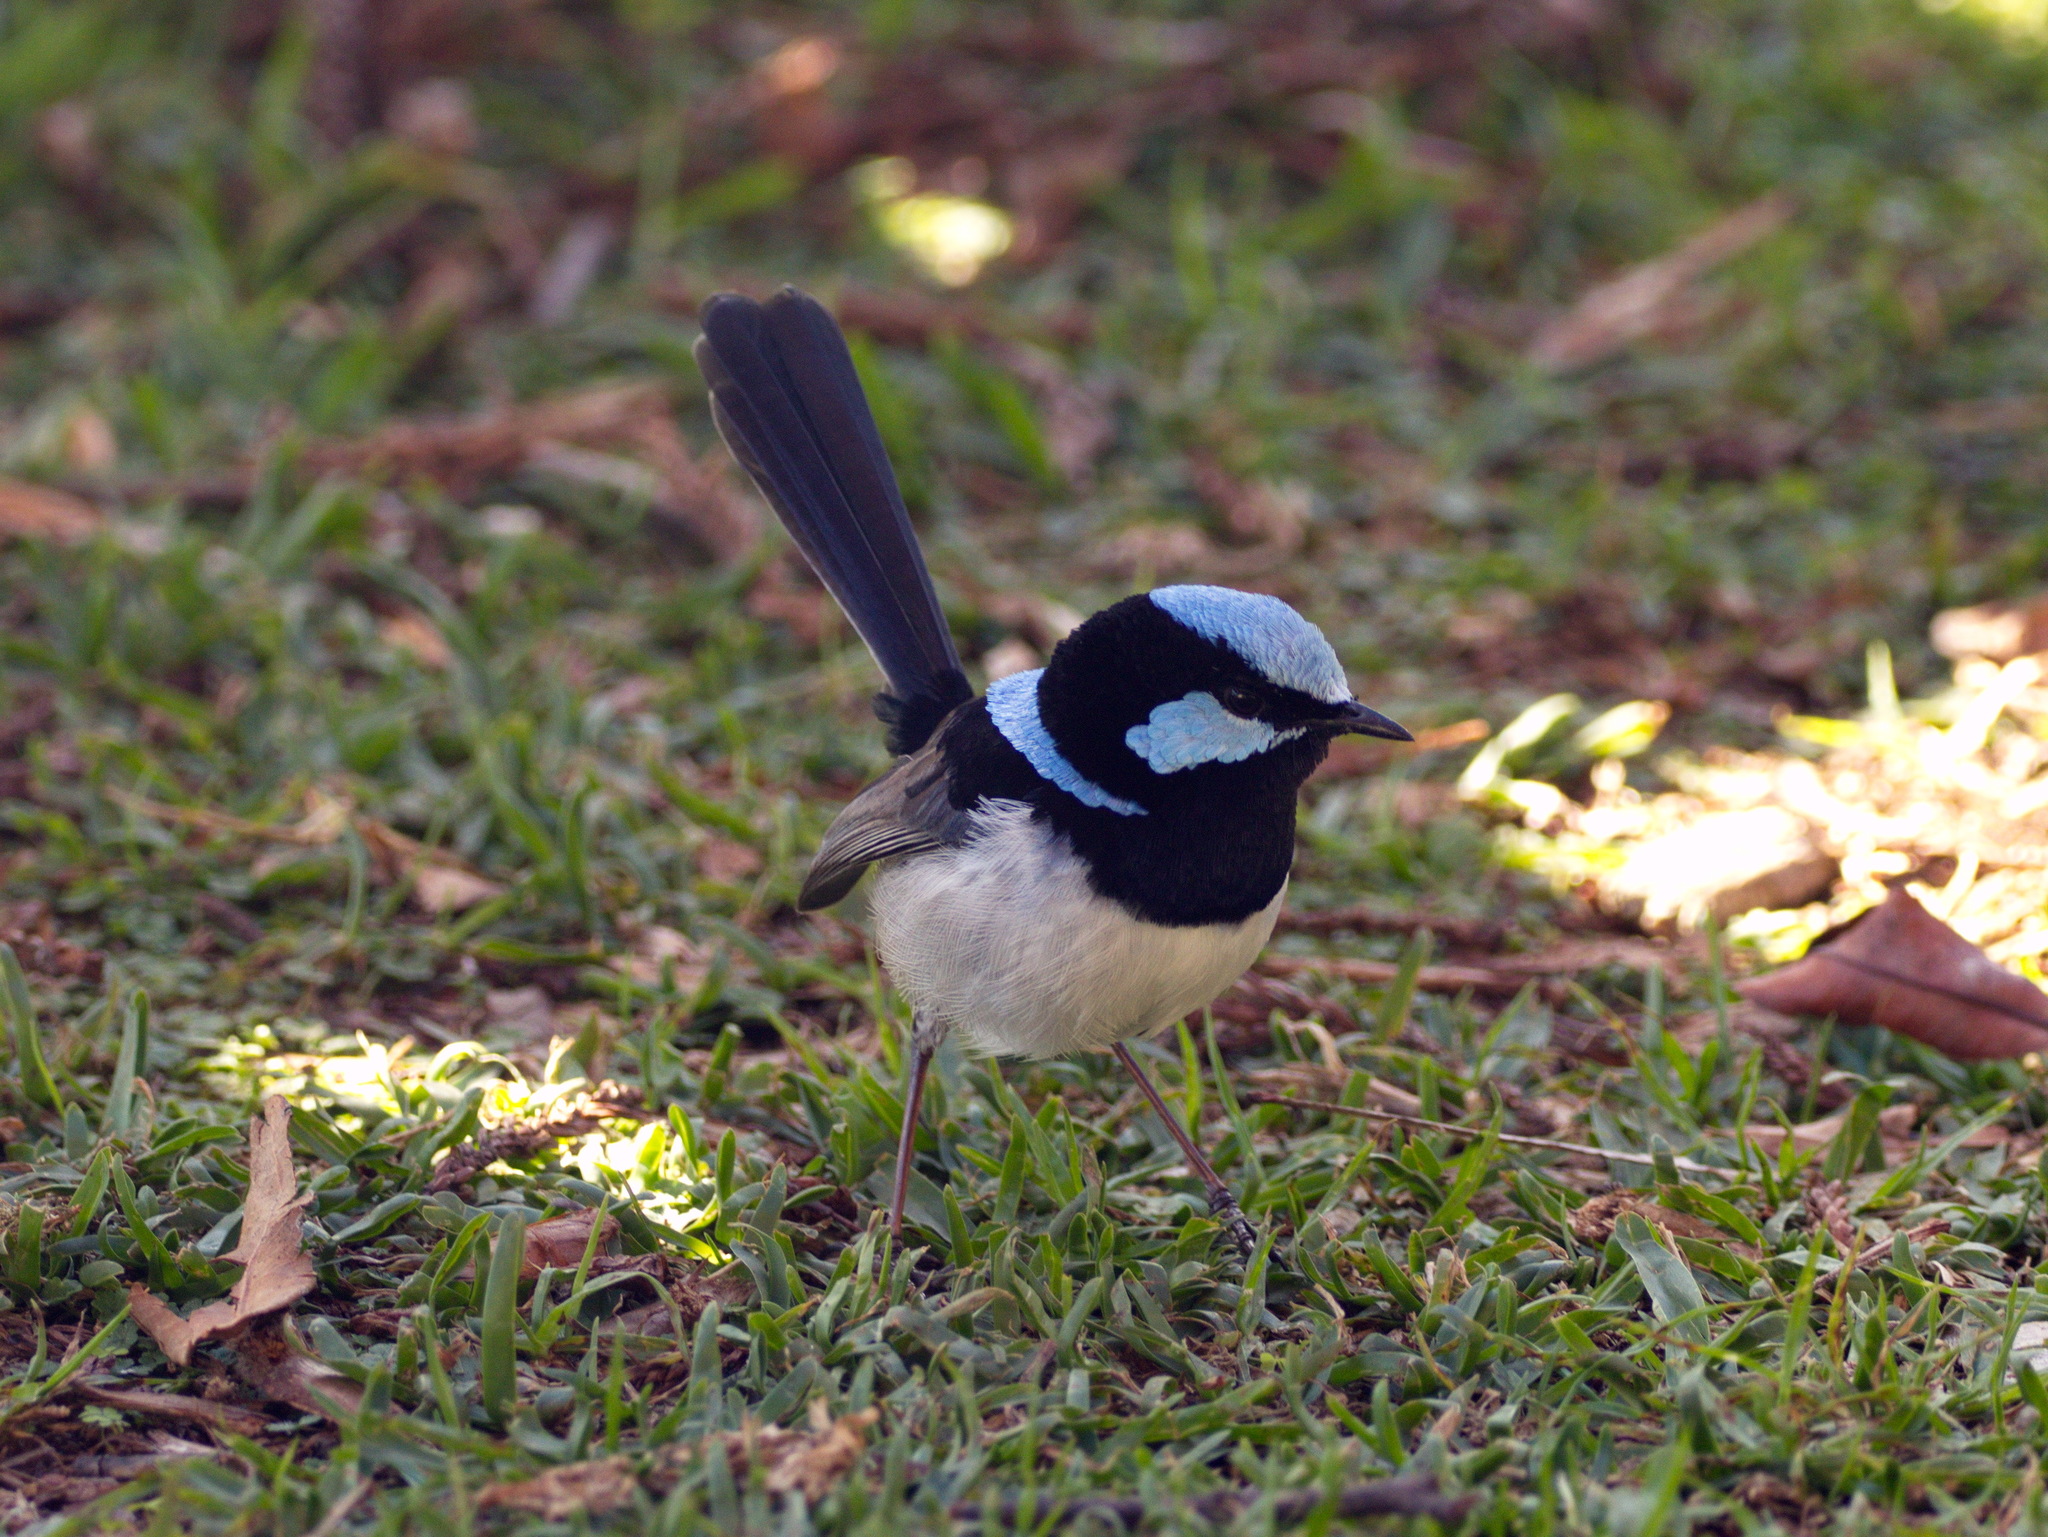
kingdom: Animalia
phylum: Chordata
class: Aves
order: Passeriformes
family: Maluridae
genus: Malurus
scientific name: Malurus cyaneus
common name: Superb fairywren
